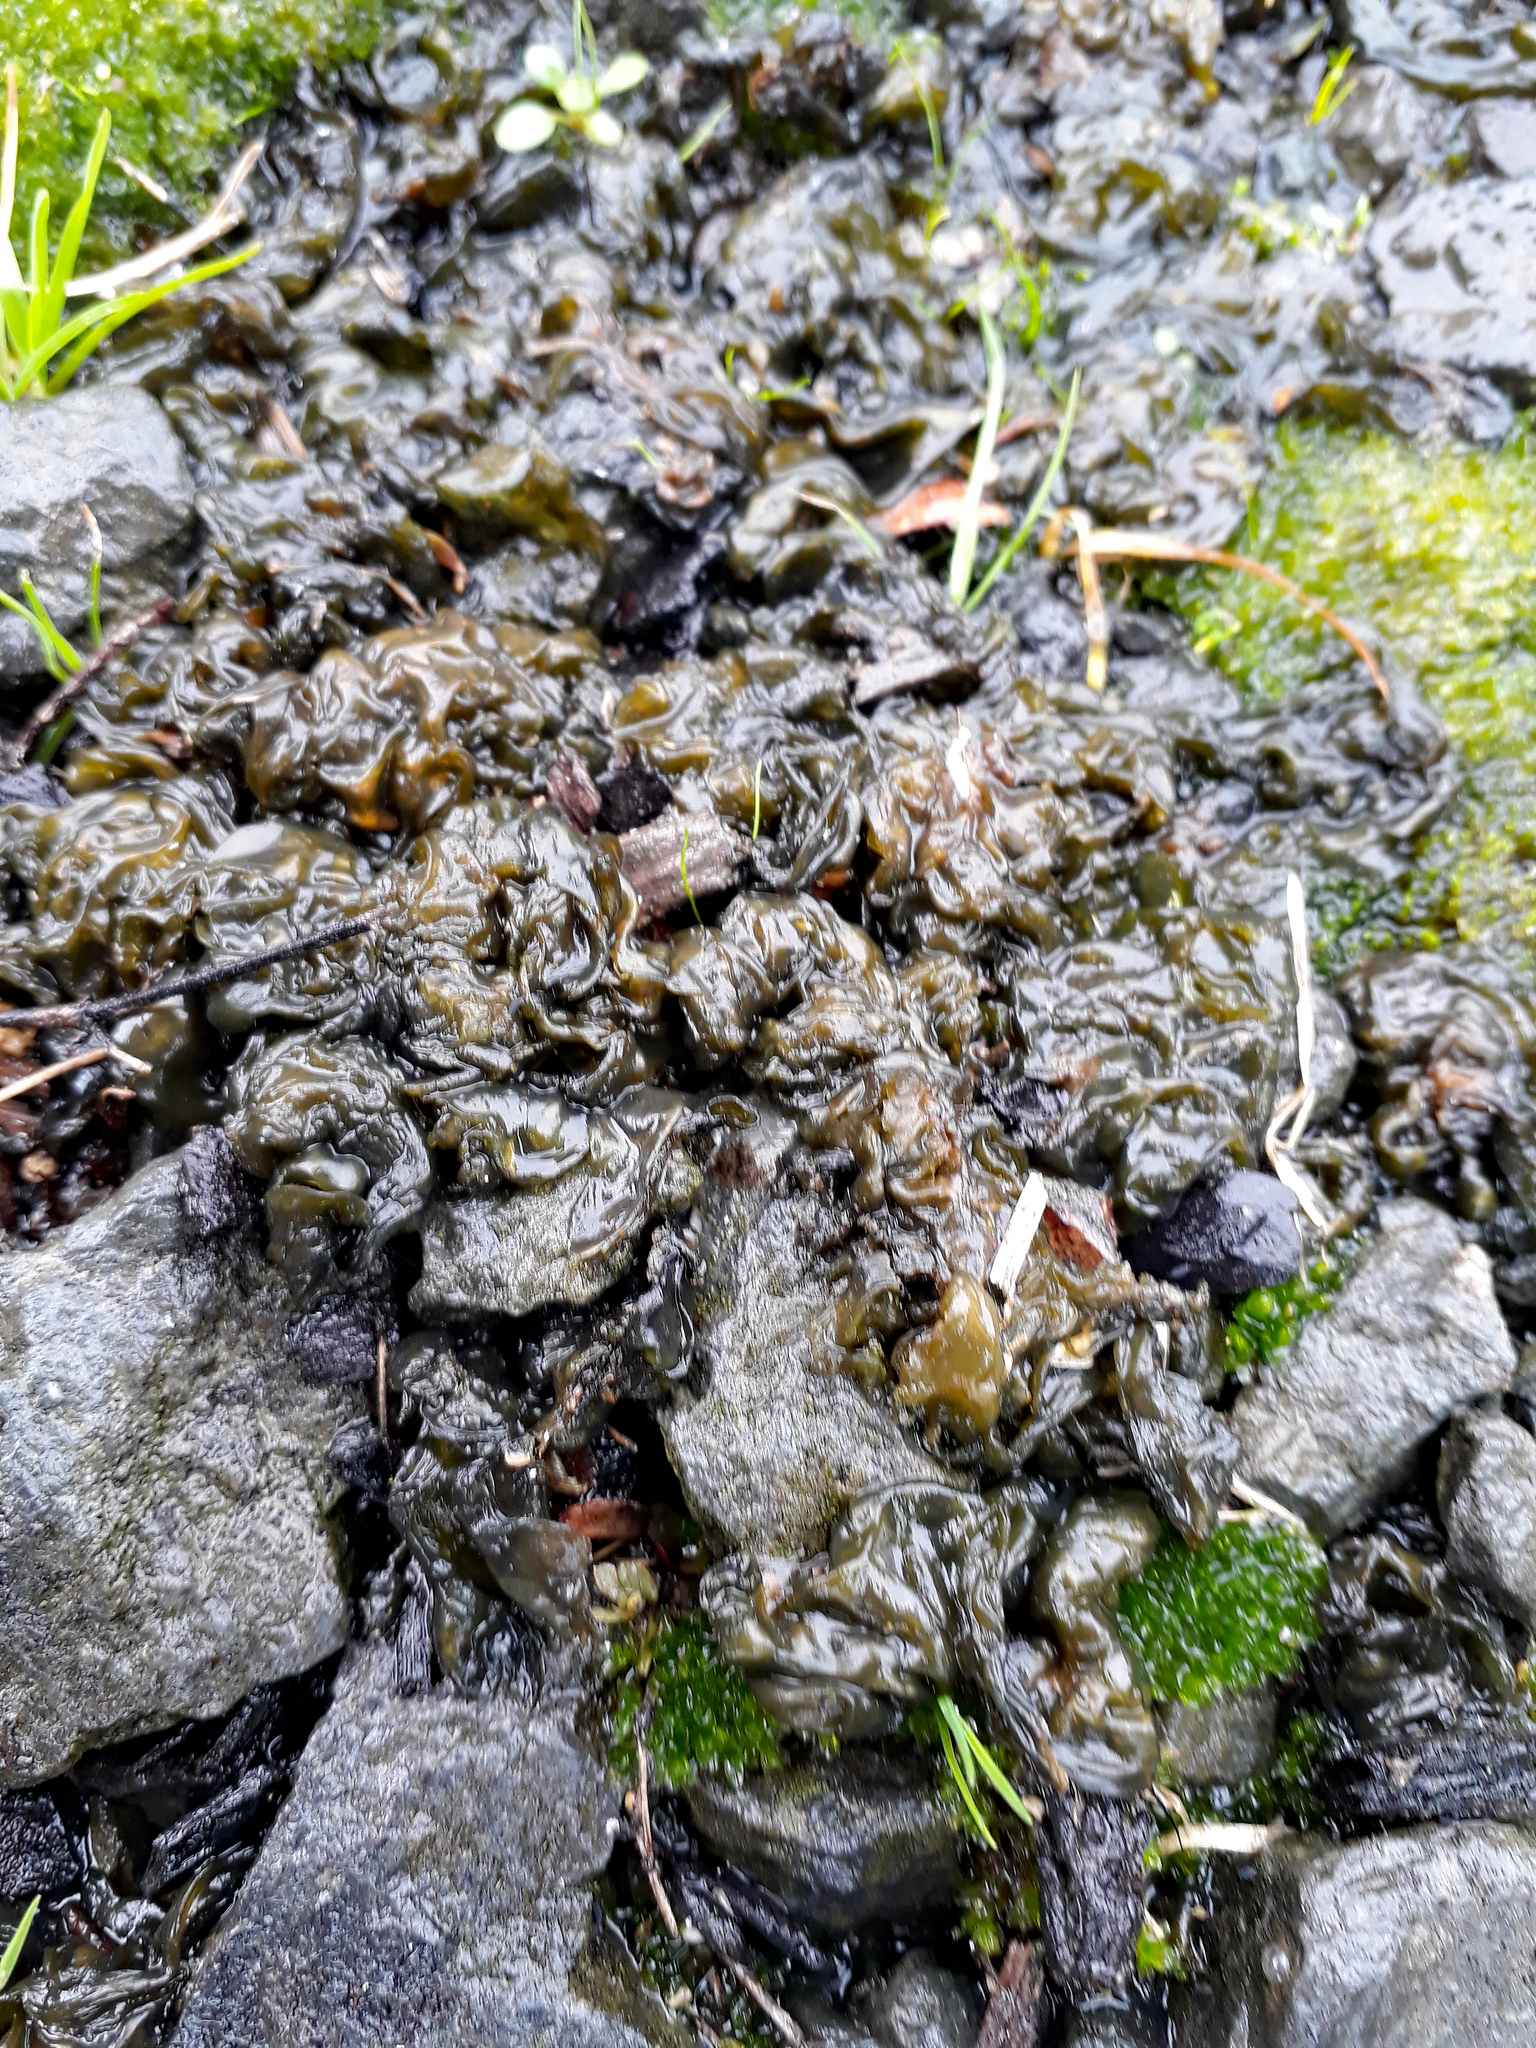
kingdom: Bacteria
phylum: Cyanobacteria
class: Cyanobacteriia
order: Cyanobacteriales
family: Nostocaceae
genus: Nostoc
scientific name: Nostoc commune
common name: Star jelly
